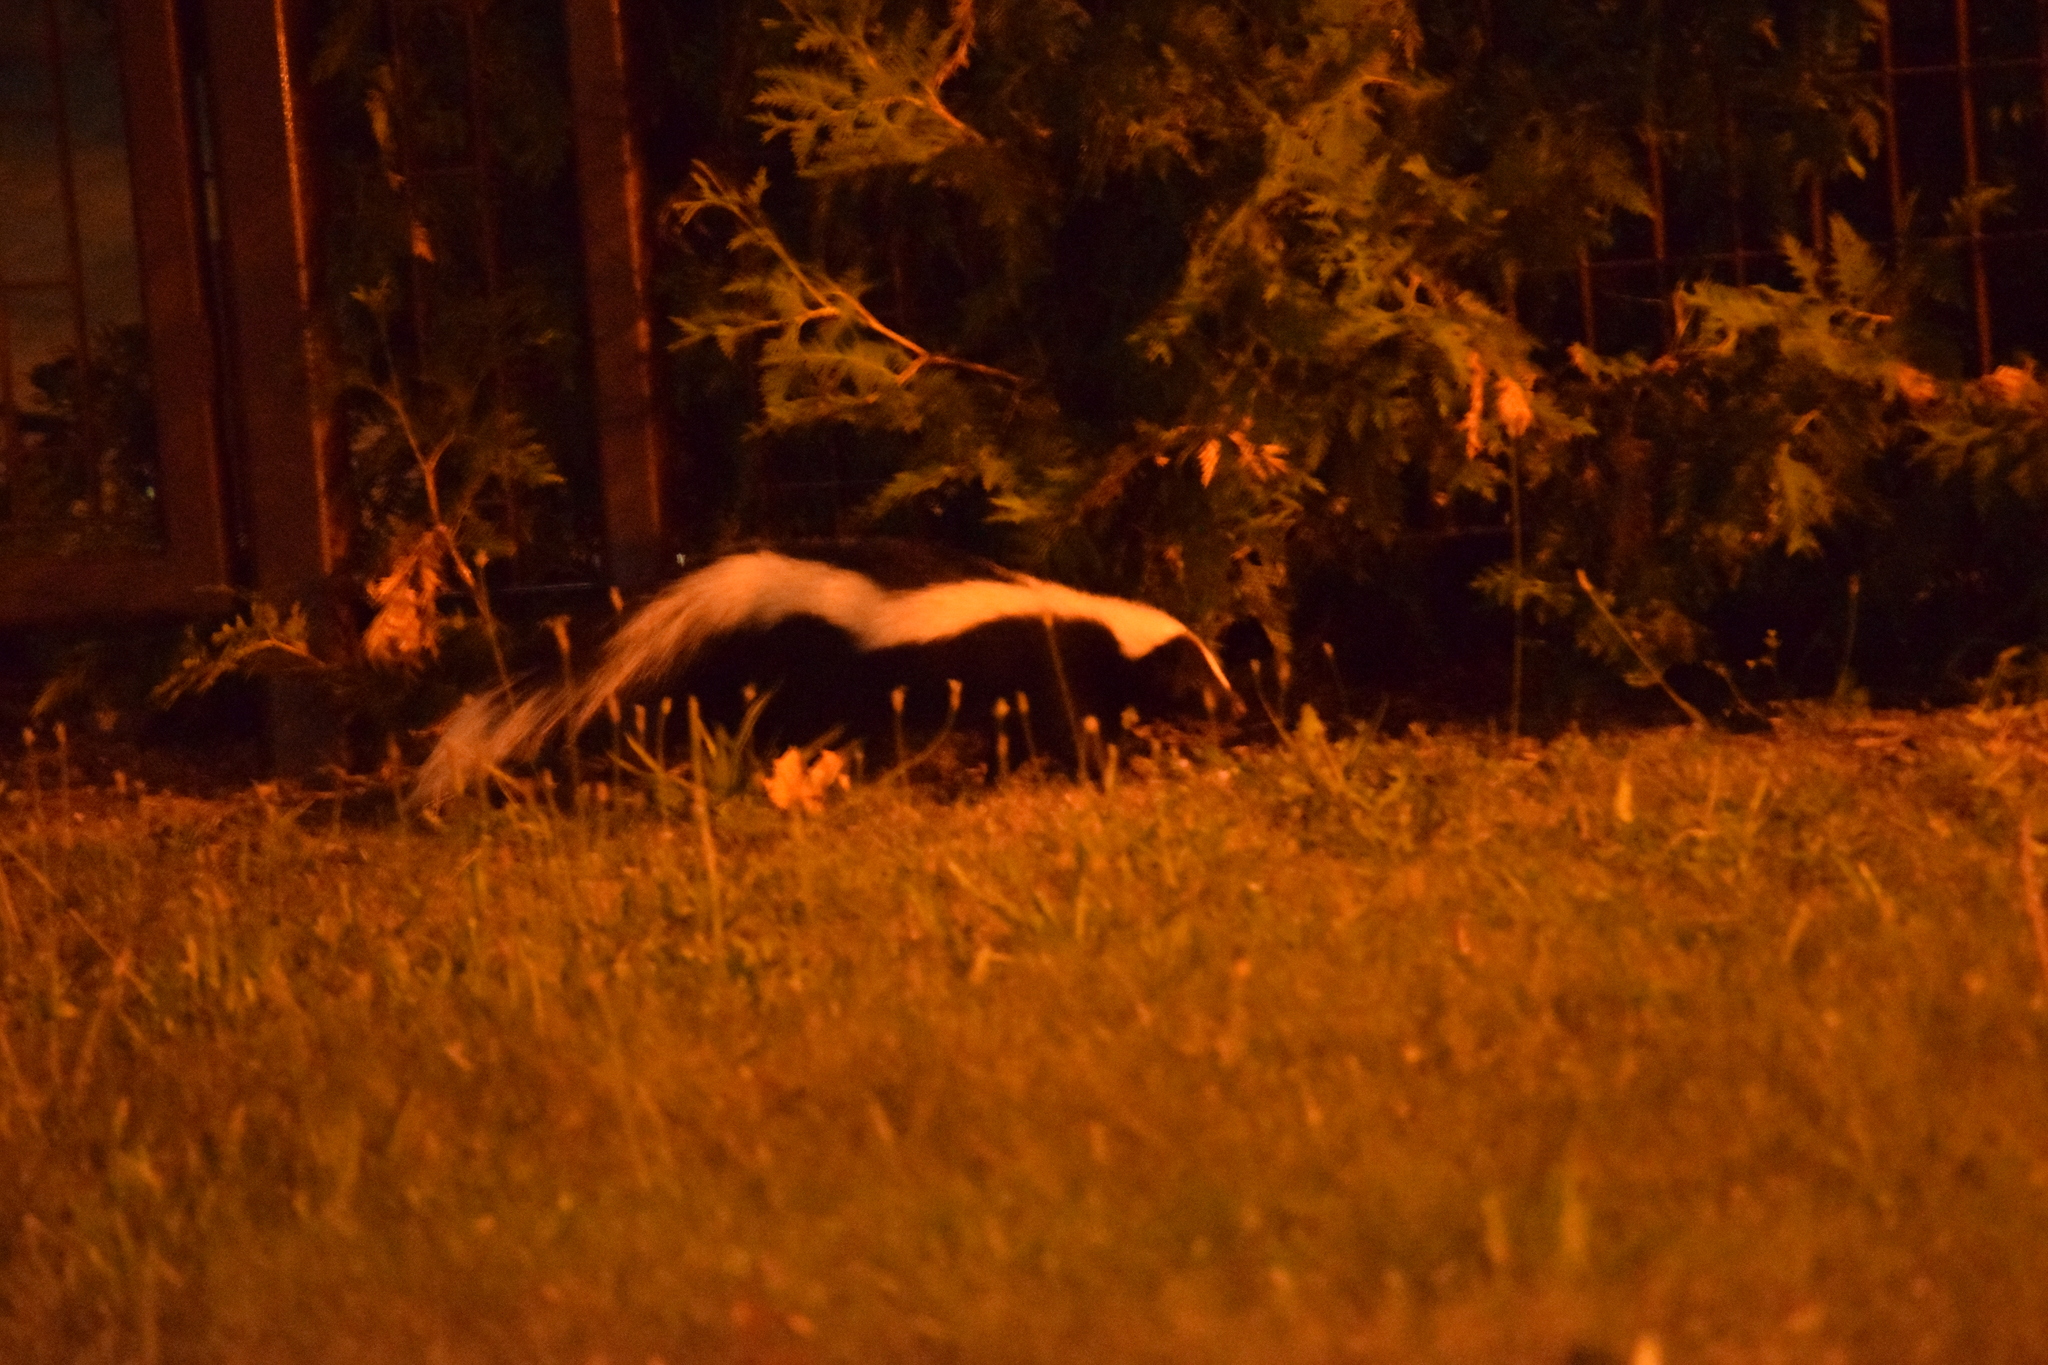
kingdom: Animalia
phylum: Chordata
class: Mammalia
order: Carnivora
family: Mephitidae
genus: Mephitis
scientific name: Mephitis mephitis
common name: Striped skunk
